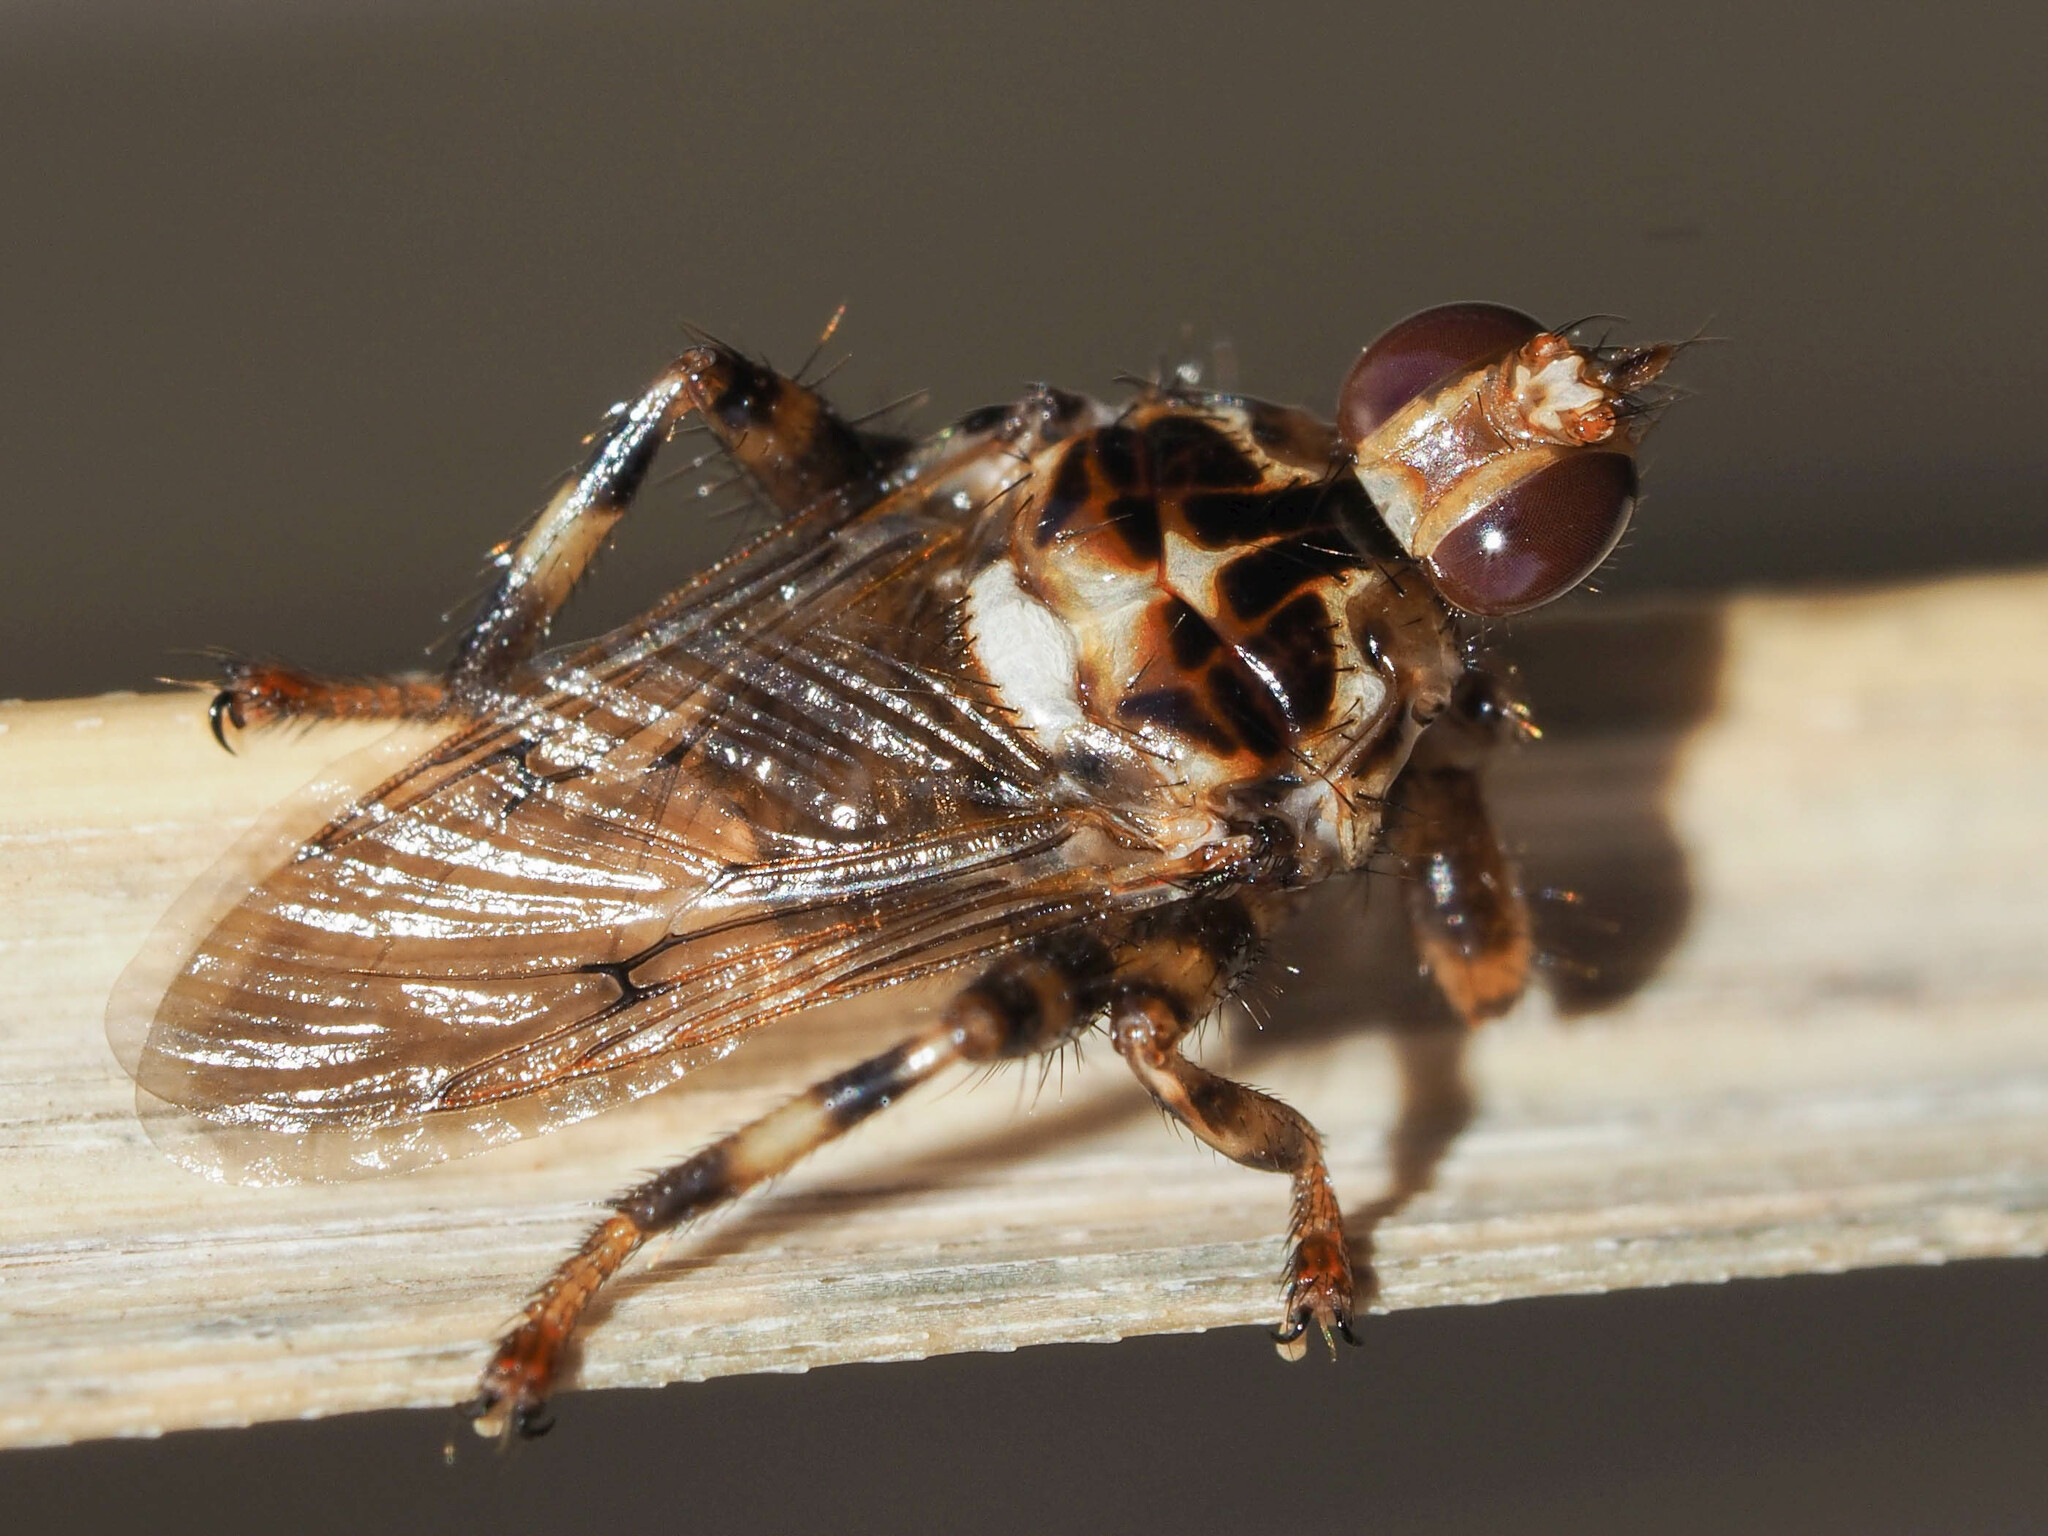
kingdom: Animalia
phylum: Arthropoda
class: Insecta
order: Diptera
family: Hippoboscidae
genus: Hippobosca
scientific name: Hippobosca equina
